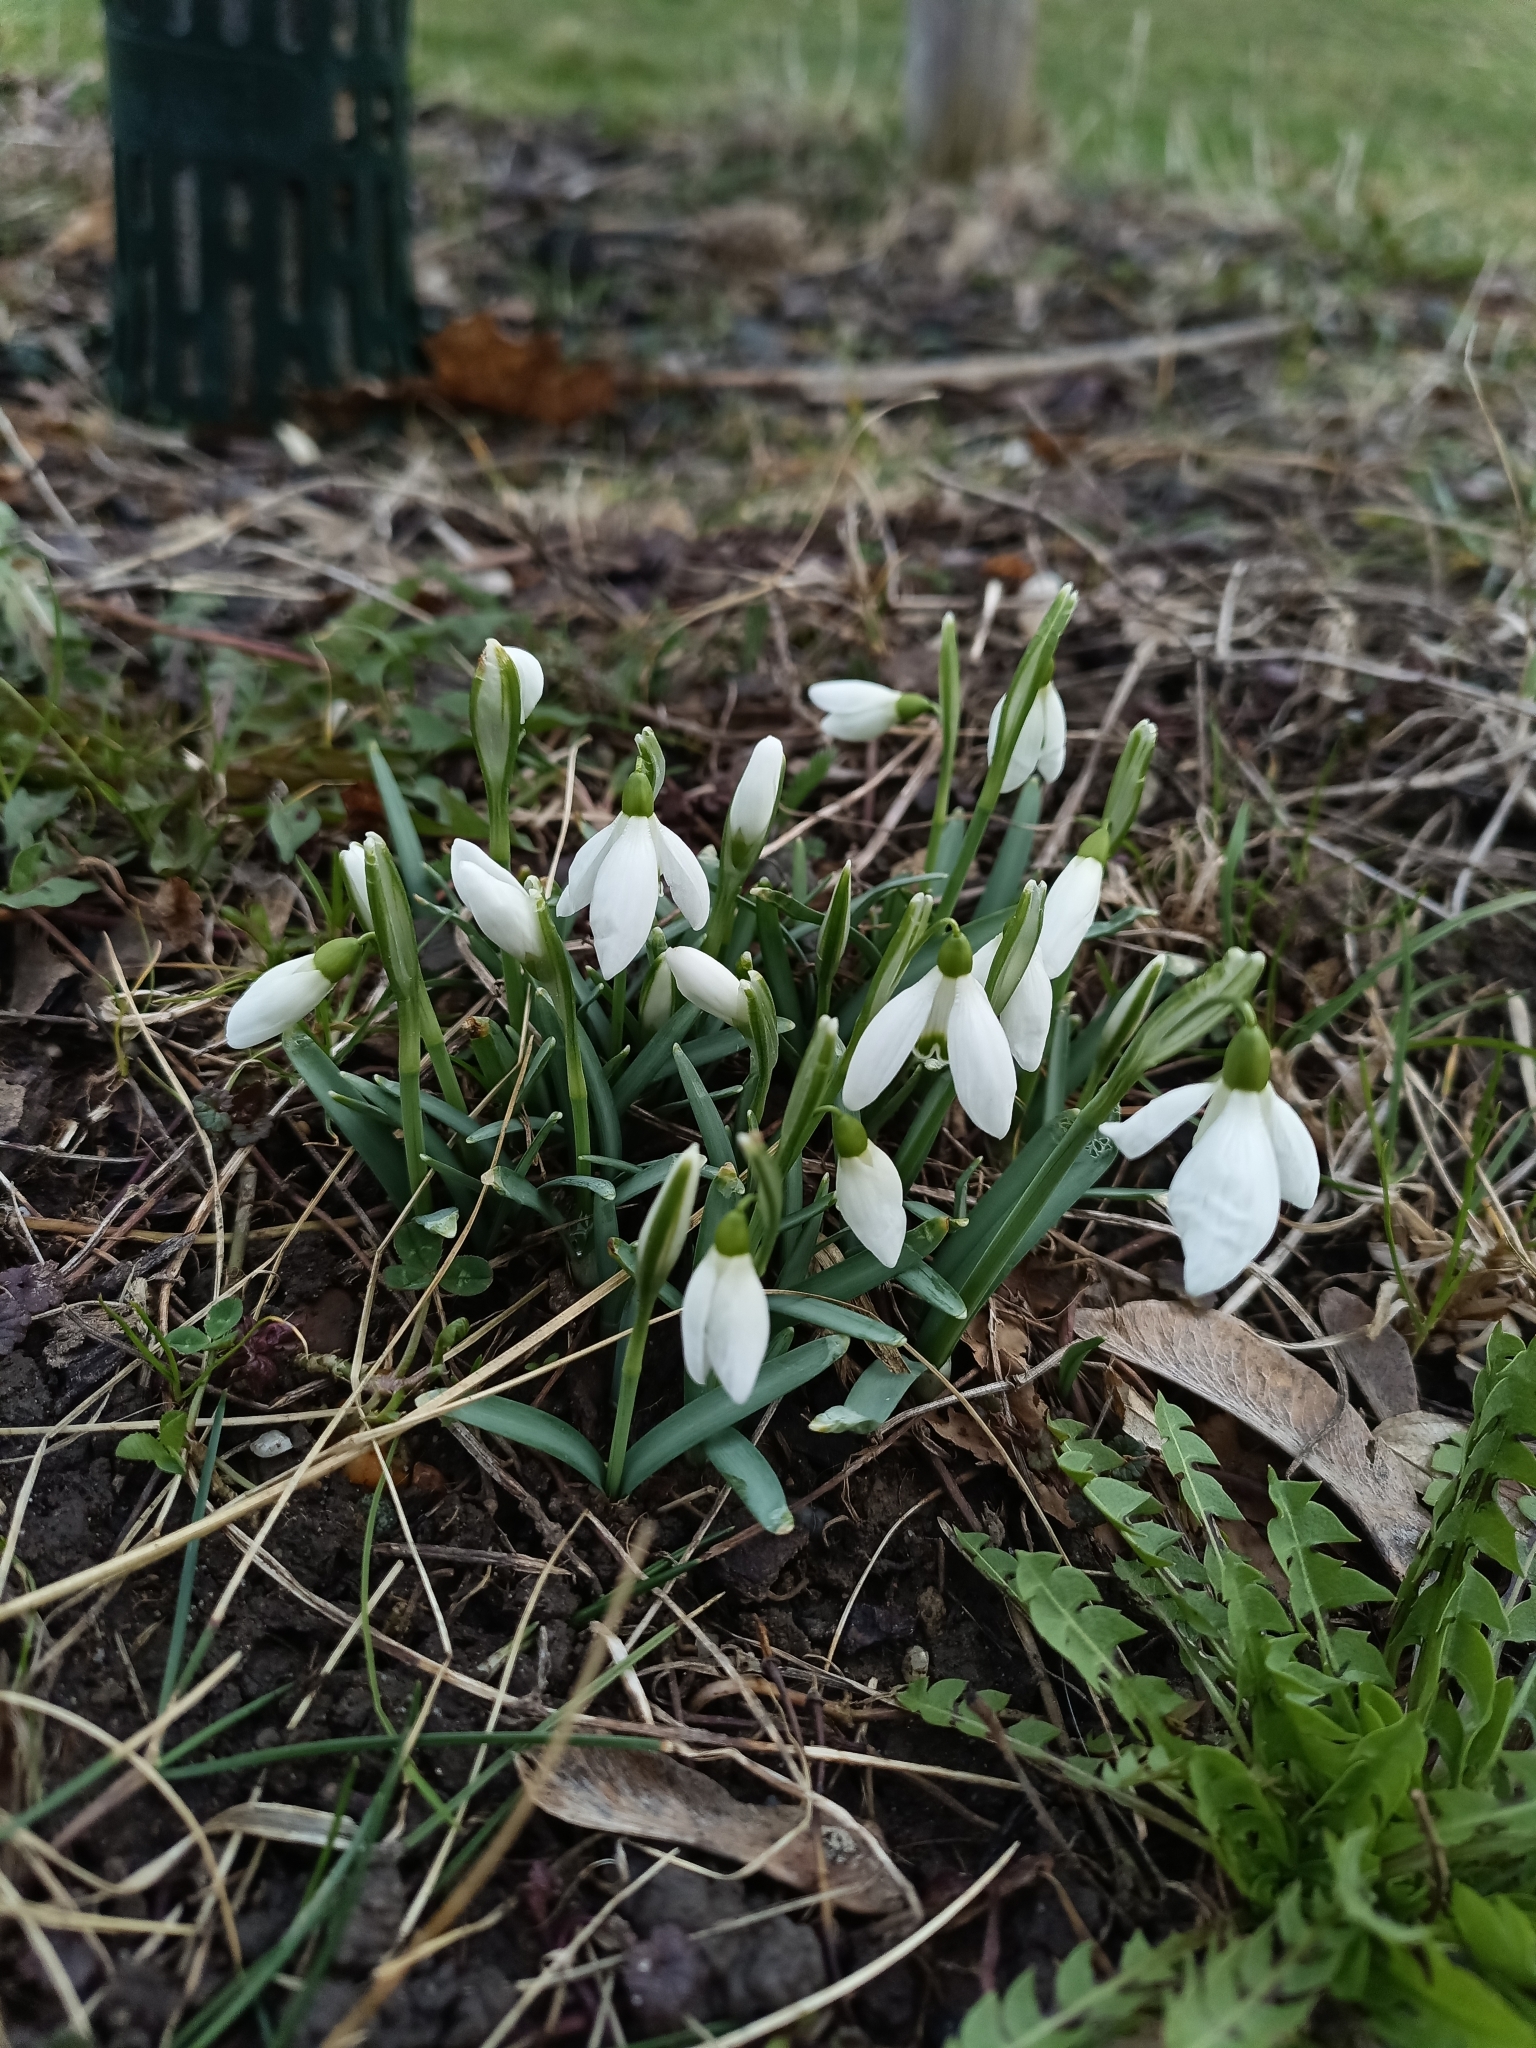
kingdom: Plantae
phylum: Tracheophyta
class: Liliopsida
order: Asparagales
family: Amaryllidaceae
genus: Galanthus
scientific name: Galanthus nivalis
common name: Snowdrop
